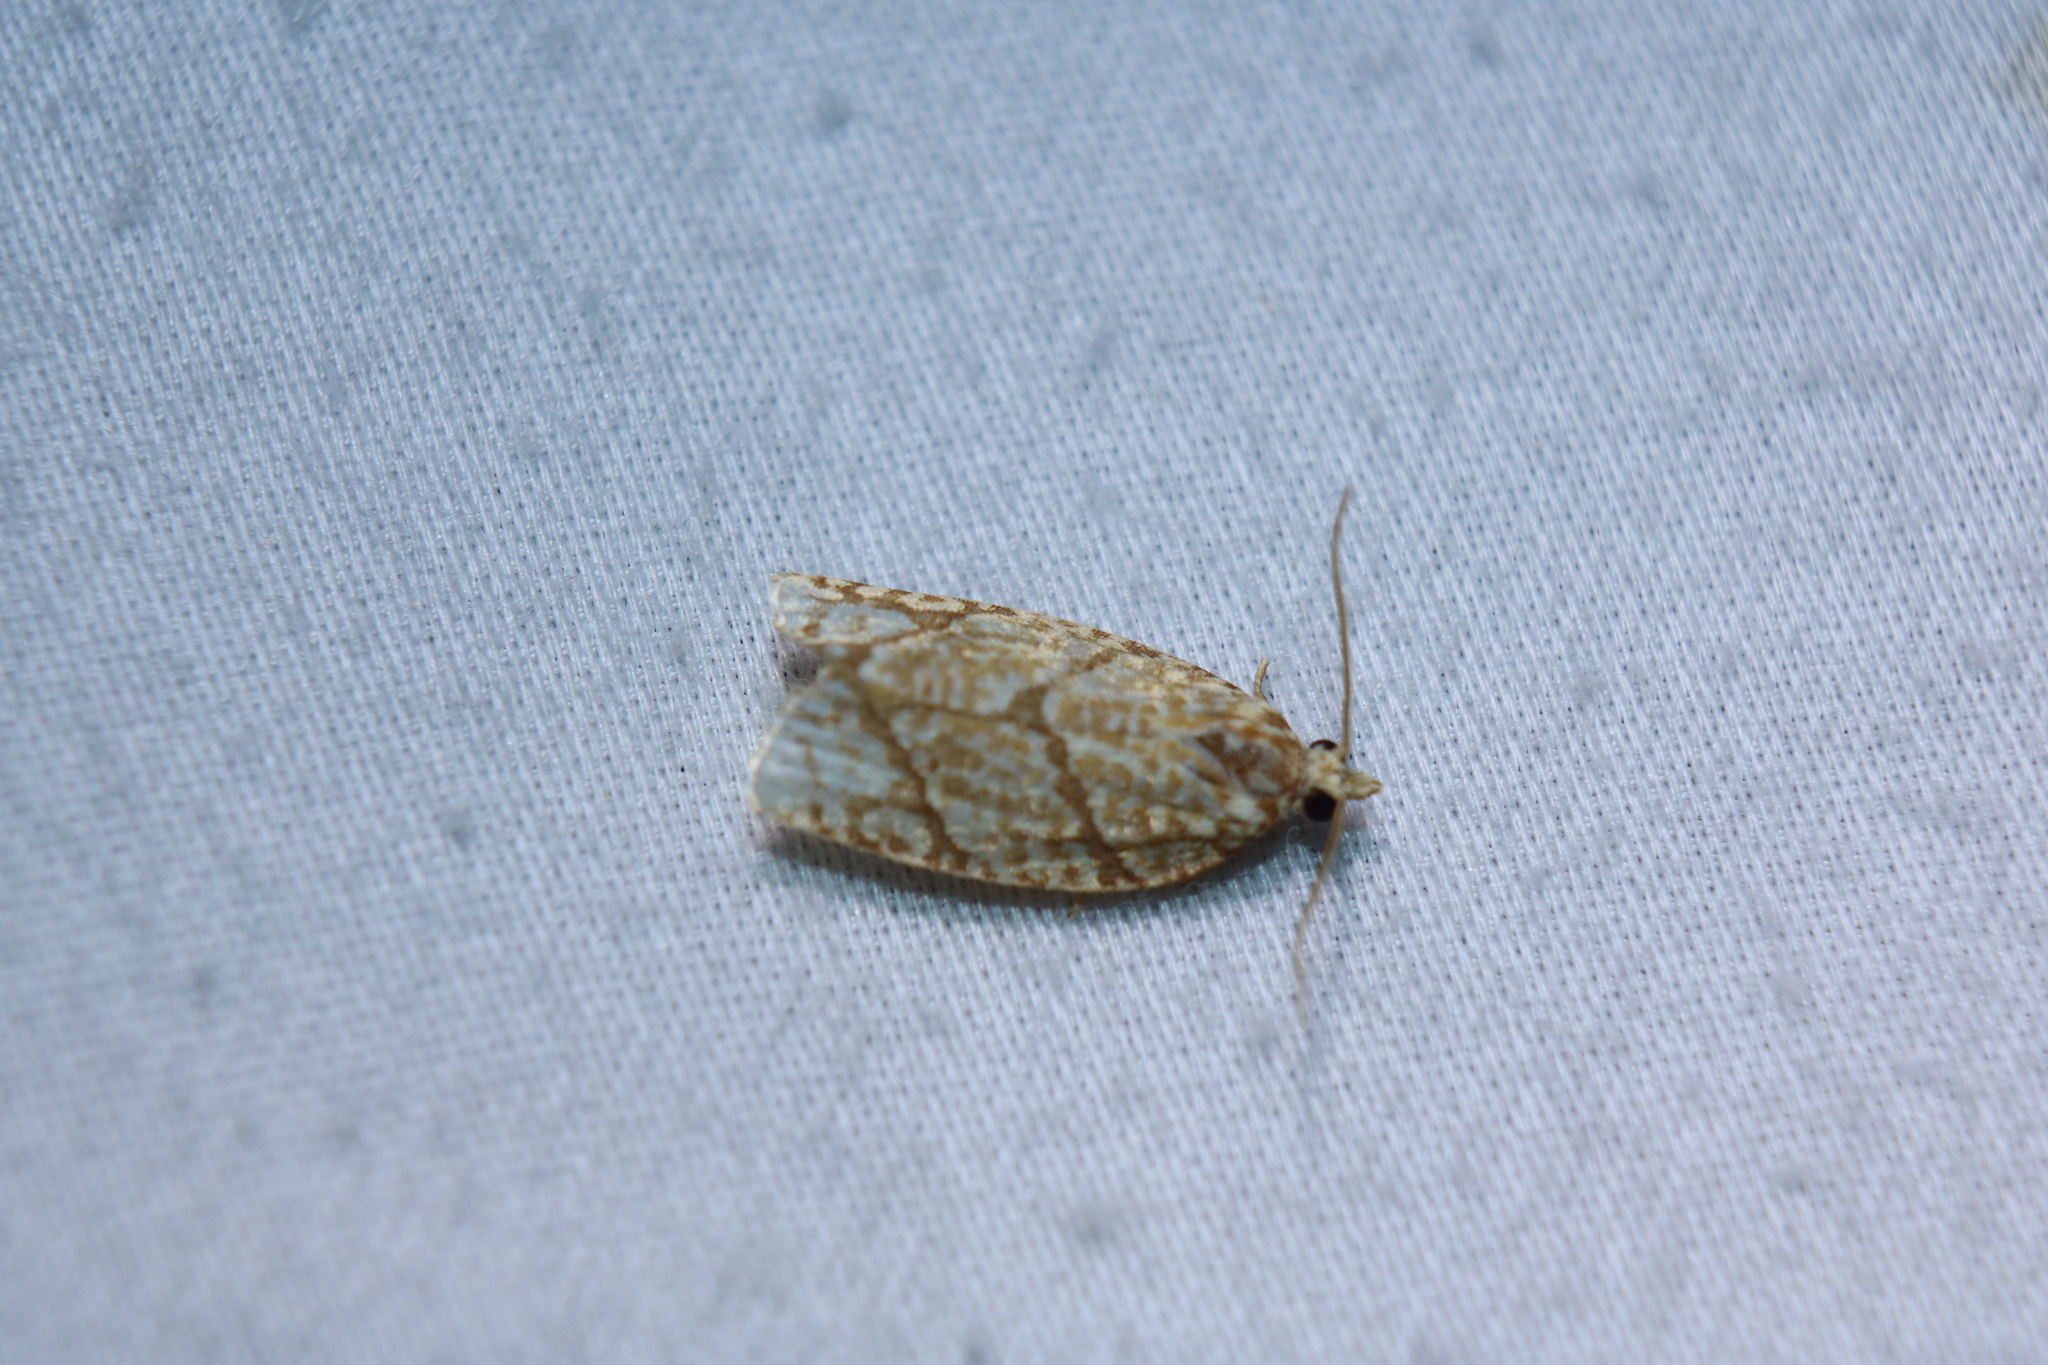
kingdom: Animalia
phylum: Arthropoda
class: Insecta
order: Lepidoptera
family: Tortricidae
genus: Argyrotaenia
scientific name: Argyrotaenia quercifoliana
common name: Yellow-winged oak leafroller moth
